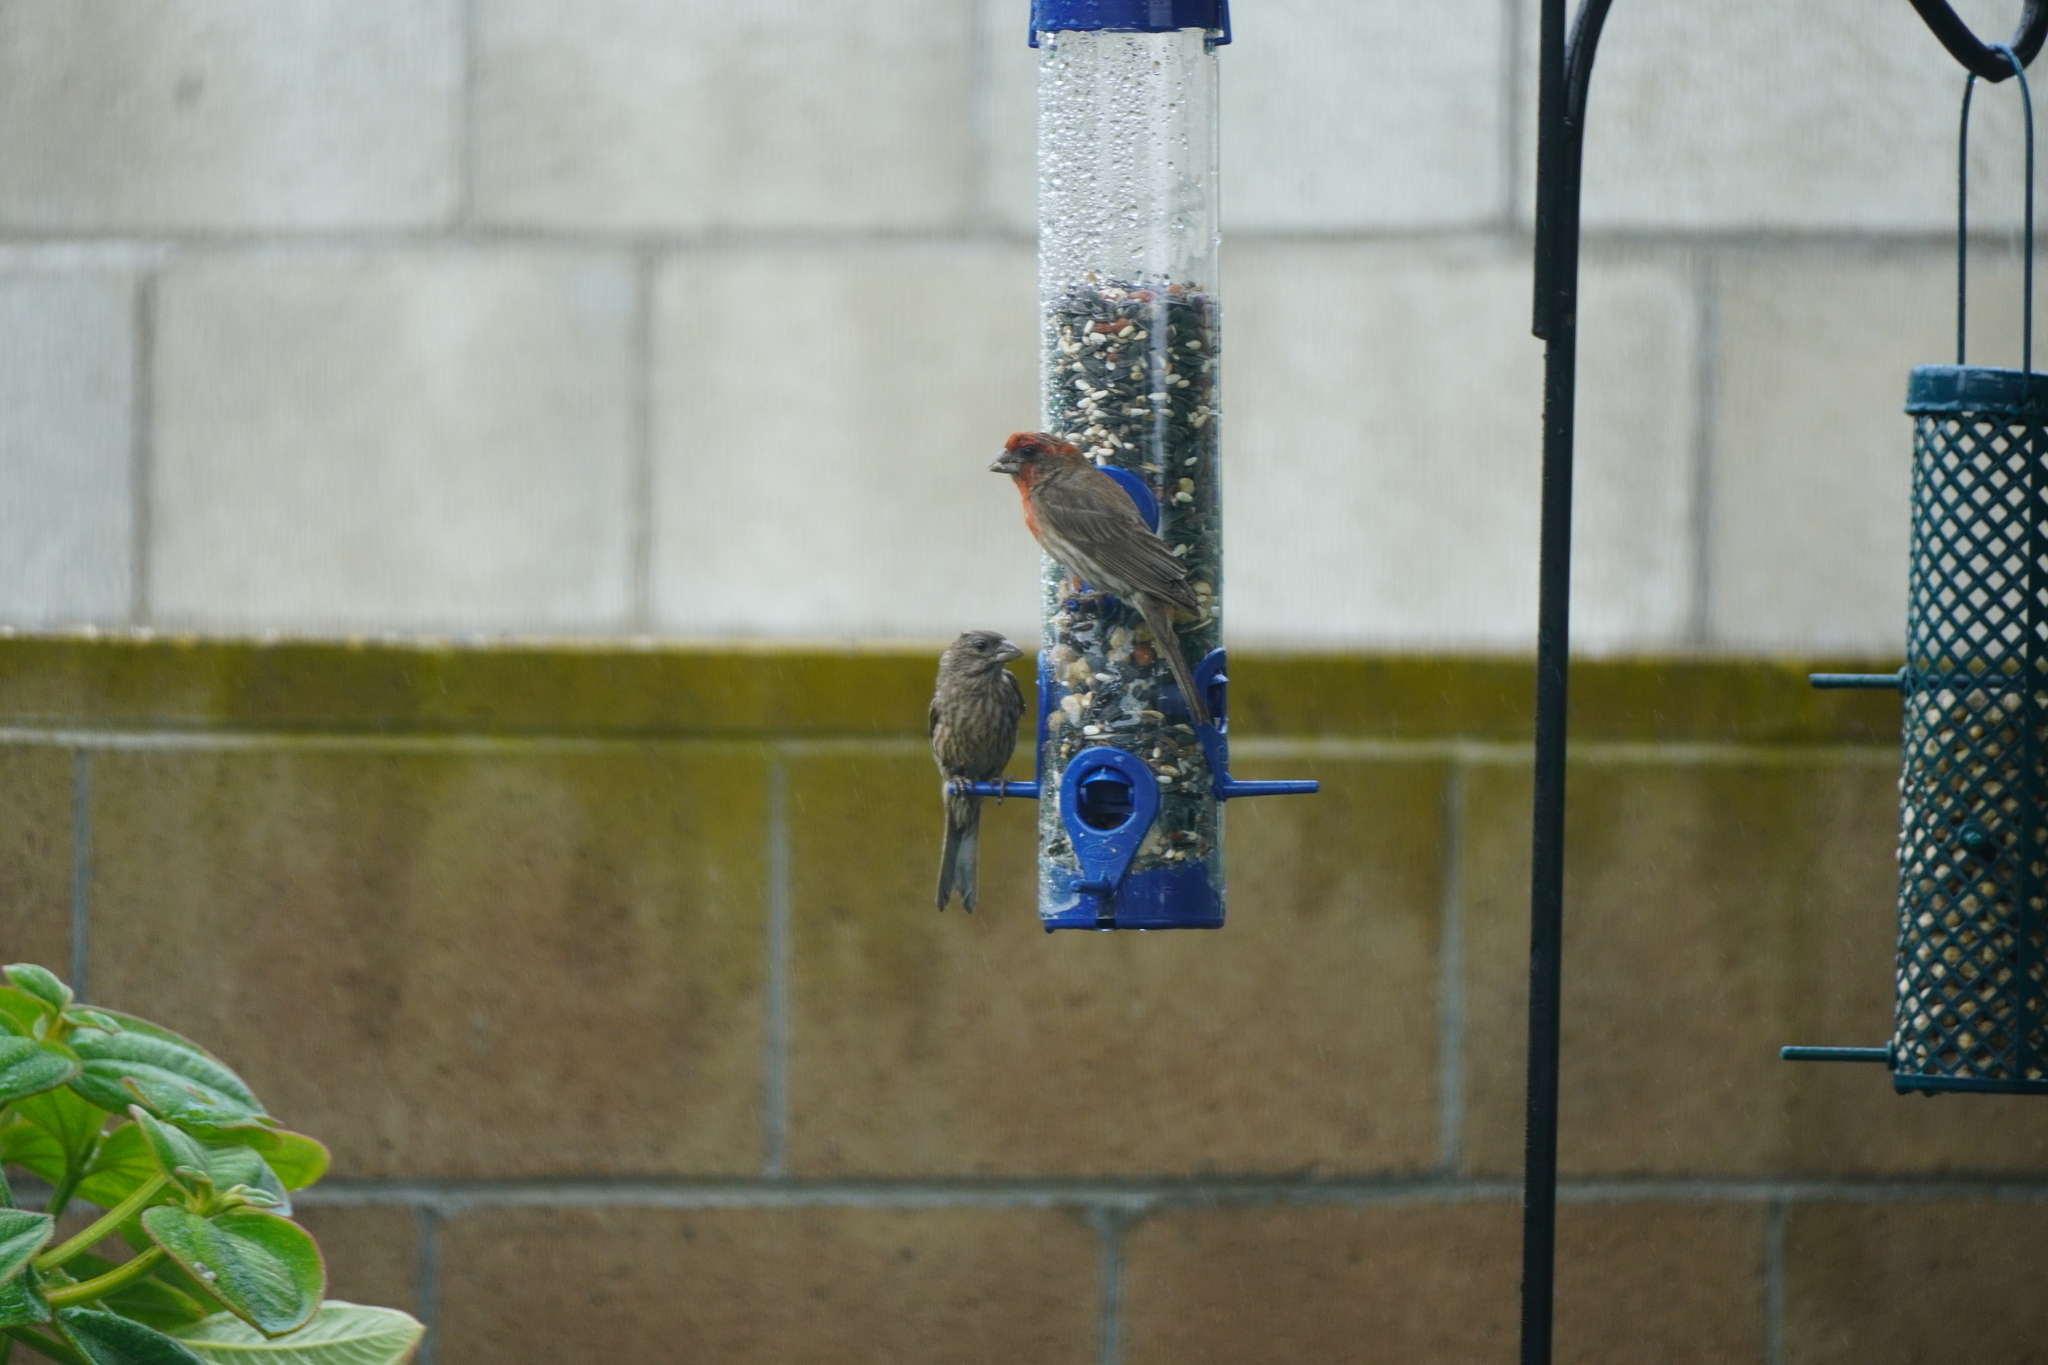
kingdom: Animalia
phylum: Chordata
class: Aves
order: Passeriformes
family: Fringillidae
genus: Haemorhous
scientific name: Haemorhous mexicanus
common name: House finch
